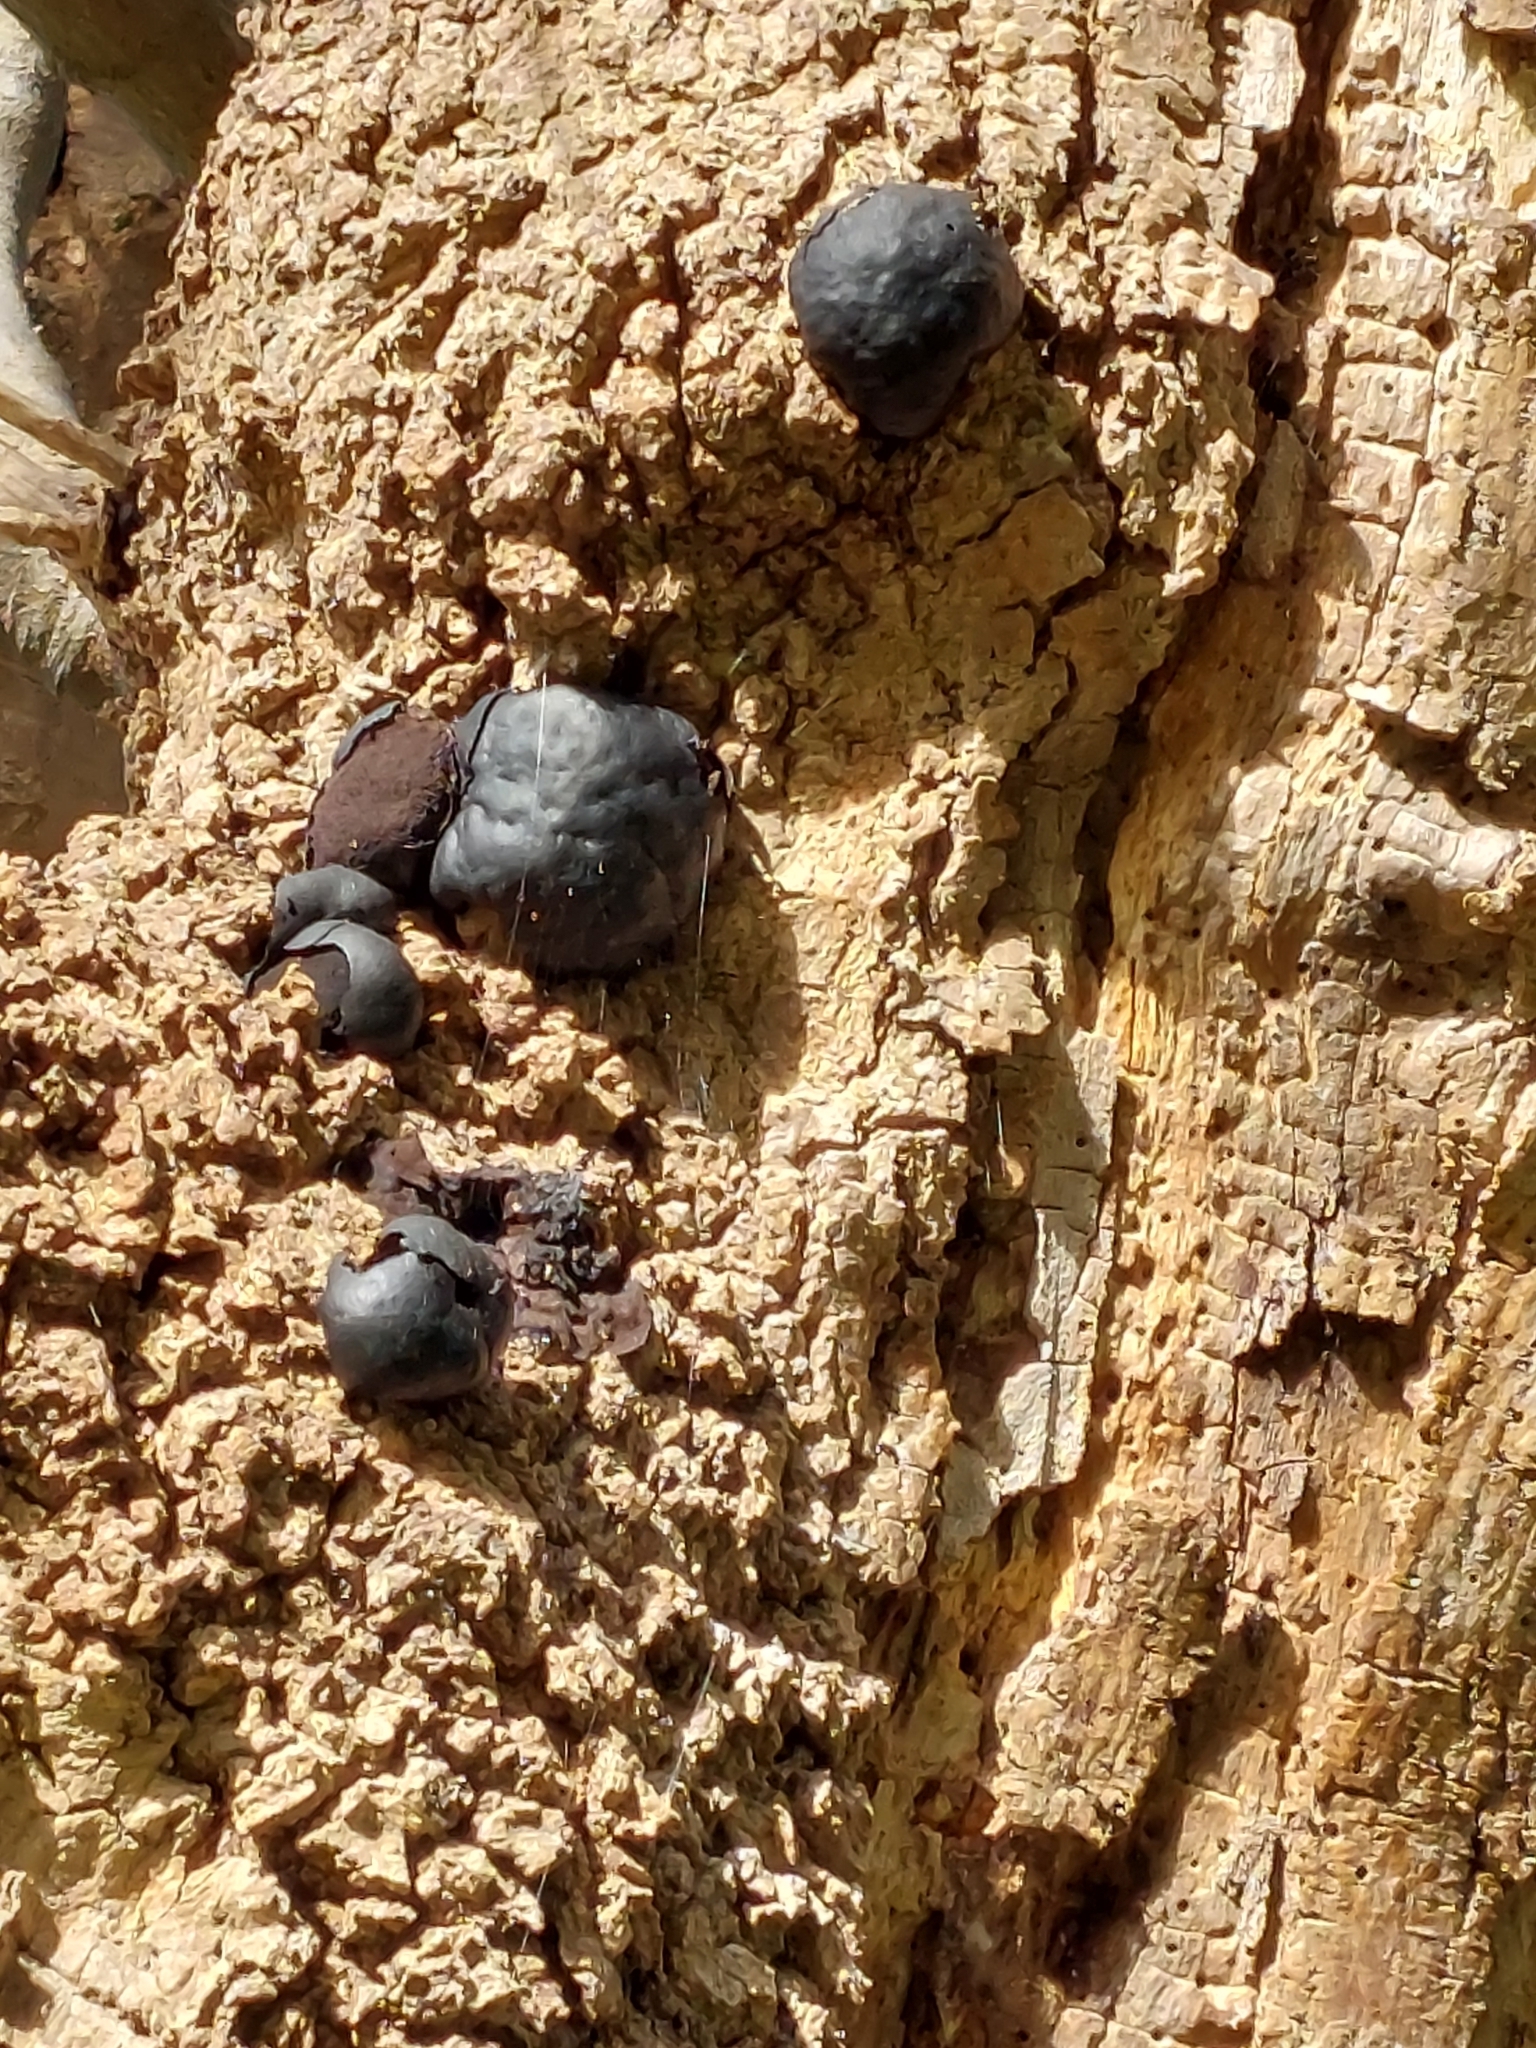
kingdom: Fungi
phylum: Ascomycota
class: Sordariomycetes
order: Xylariales
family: Hypoxylaceae
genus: Daldinia
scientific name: Daldinia concentrica
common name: Cramp balls
